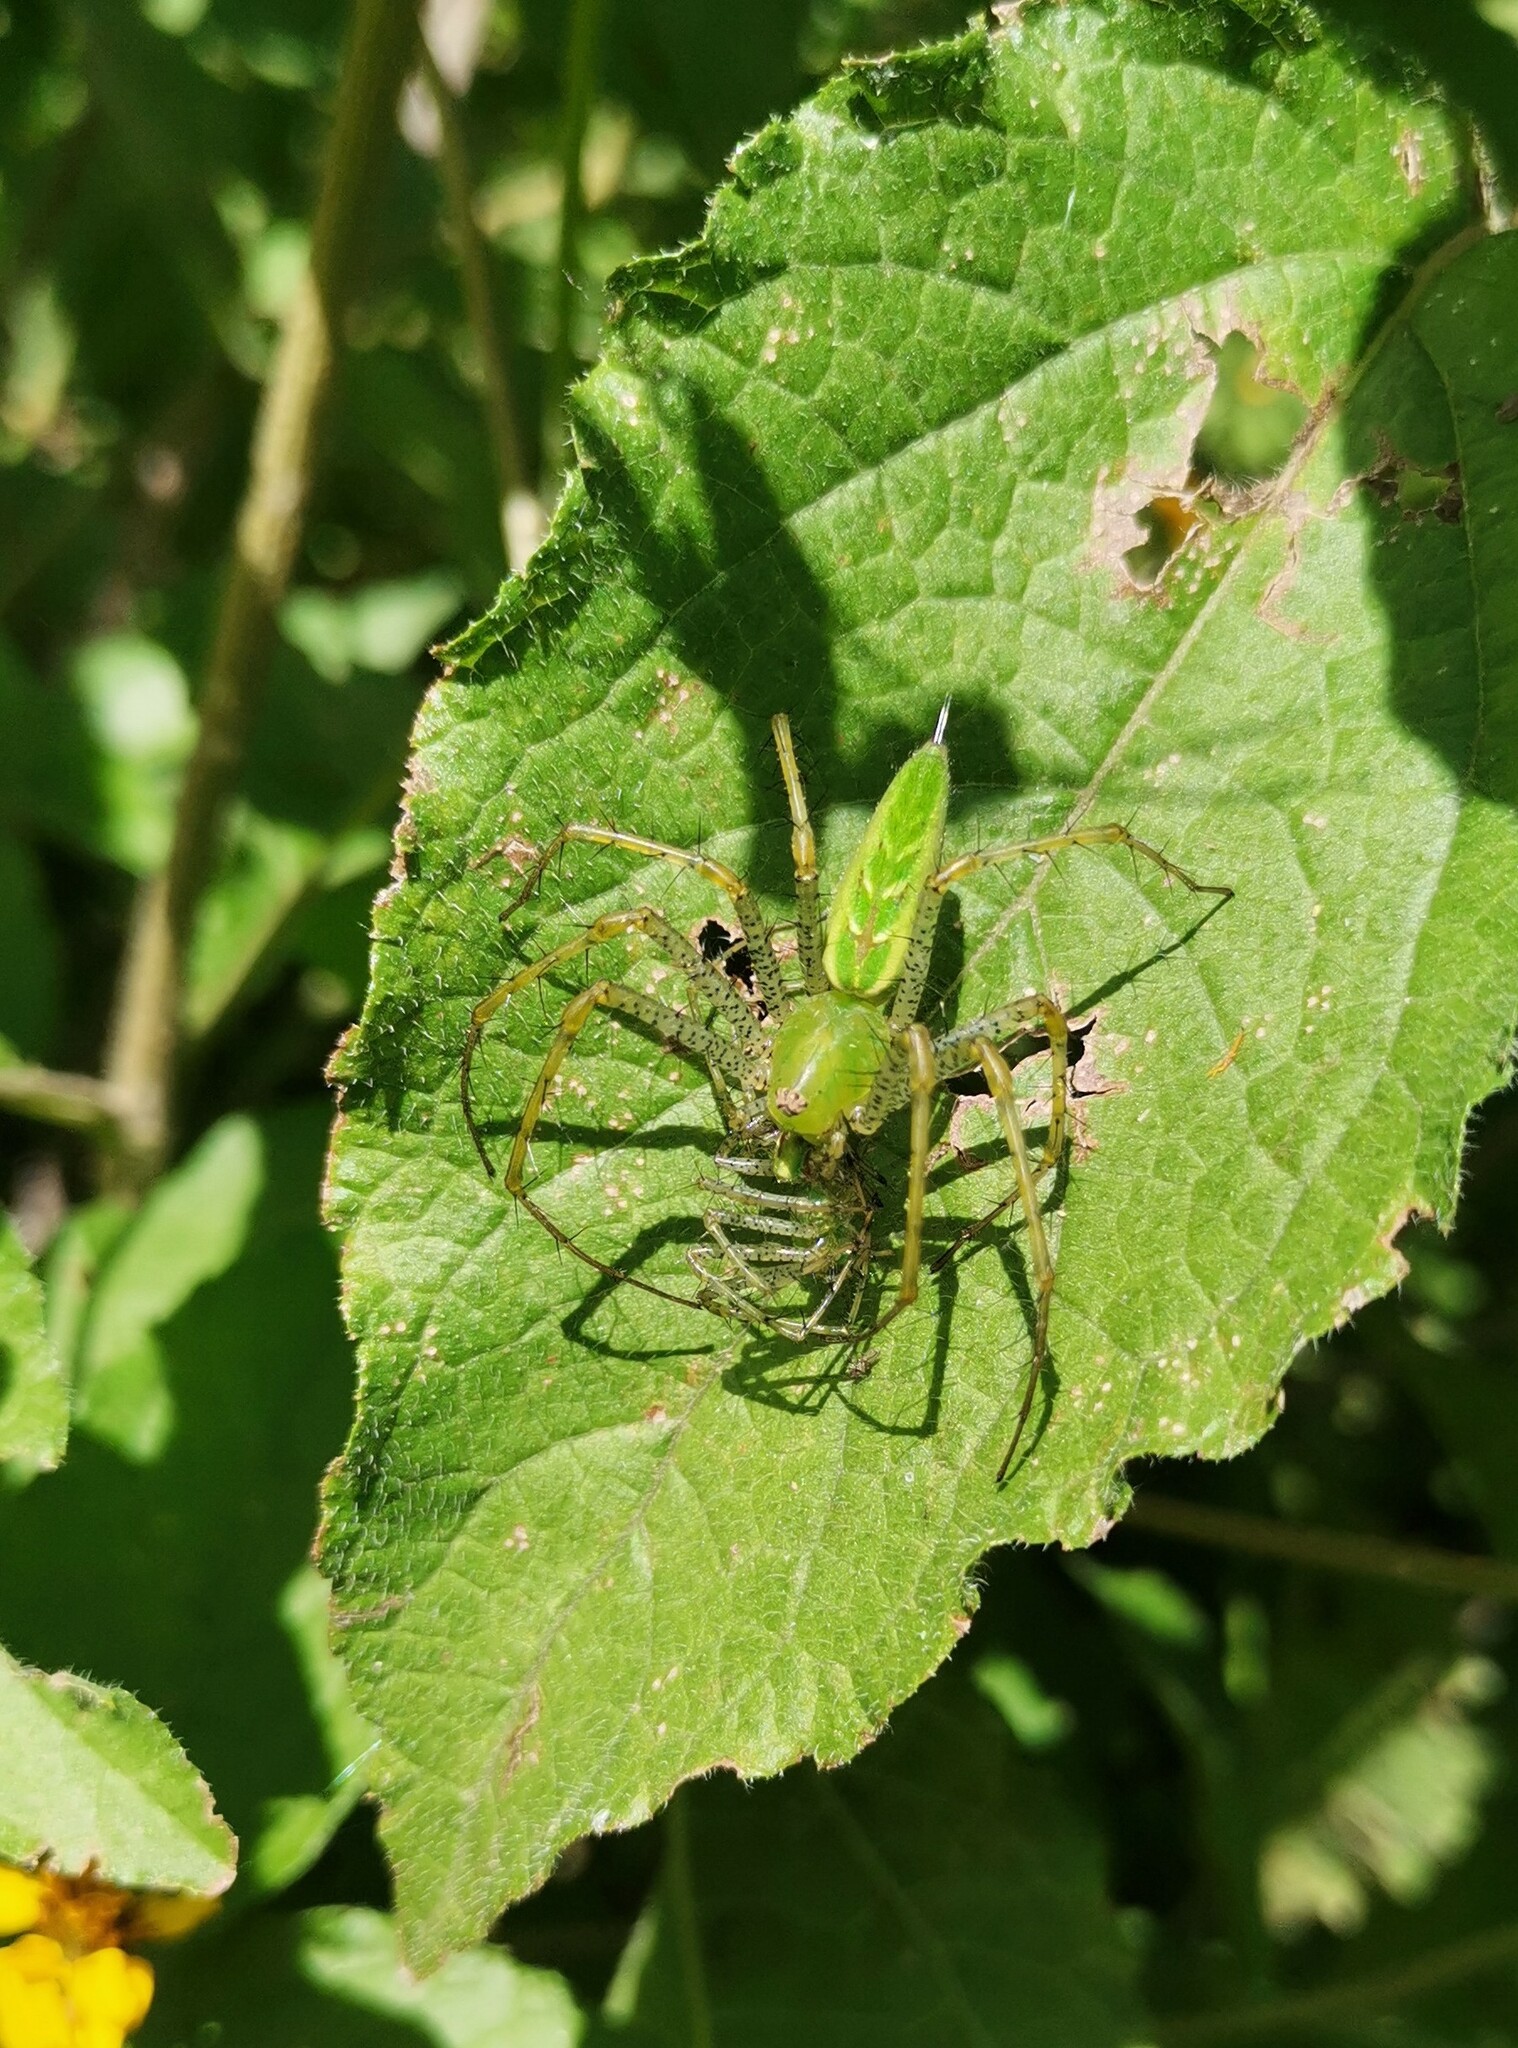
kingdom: Animalia
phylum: Arthropoda
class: Arachnida
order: Araneae
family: Oxyopidae
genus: Peucetia
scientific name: Peucetia viridans
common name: Lynx spiders
